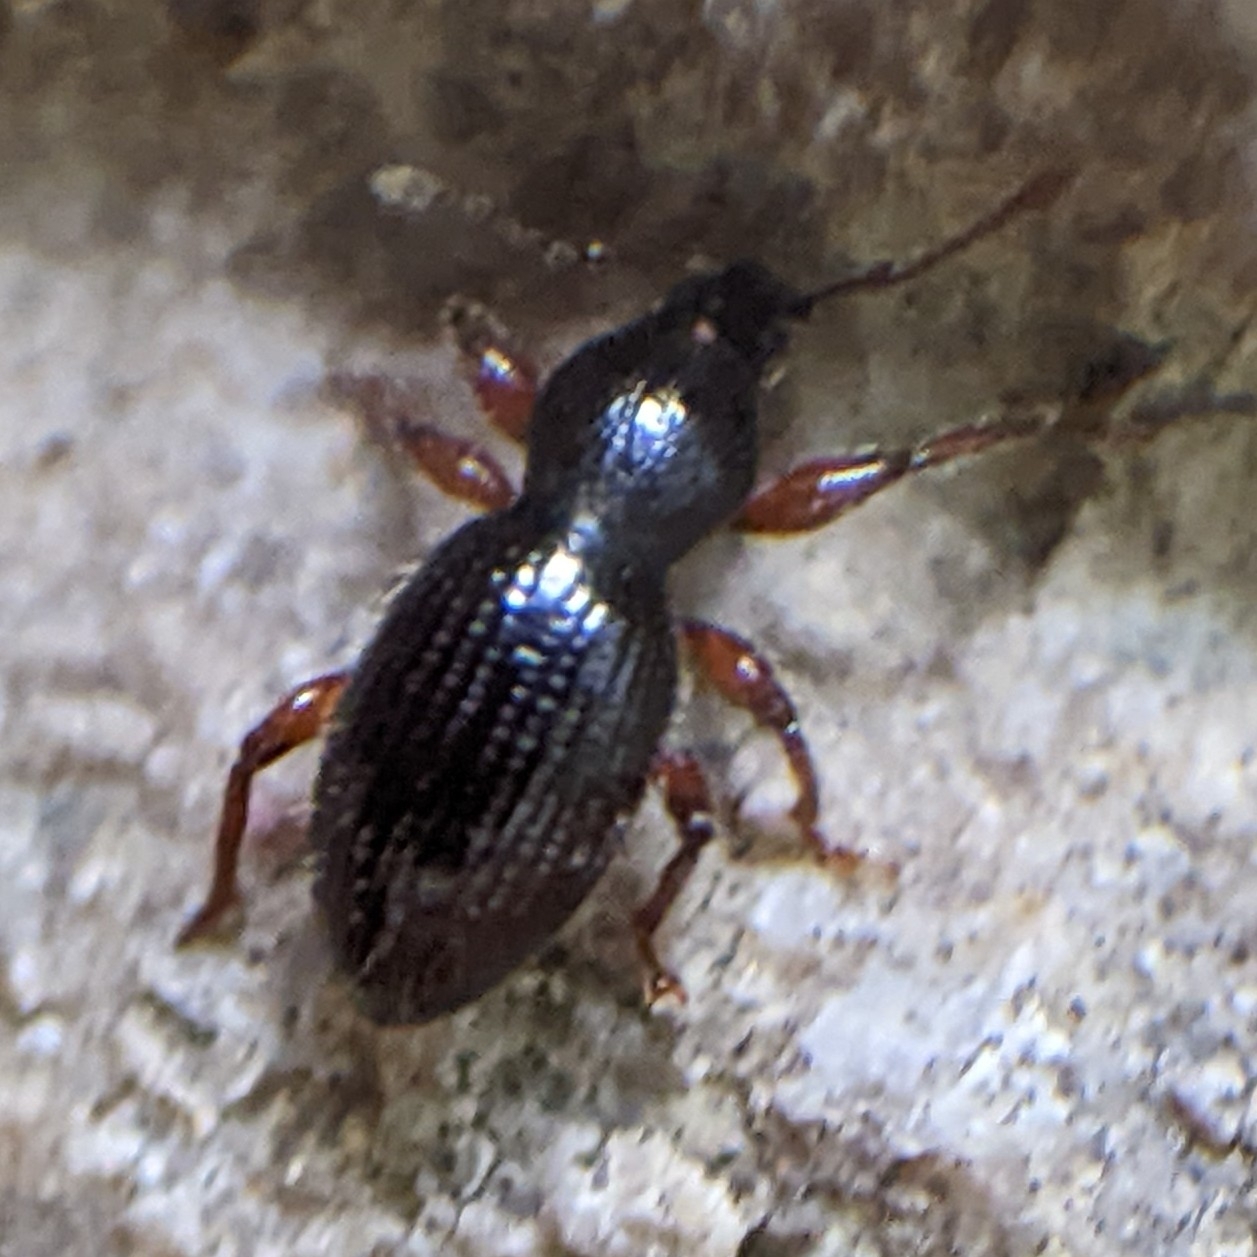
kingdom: Animalia
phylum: Arthropoda
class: Insecta
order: Coleoptera
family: Curculionidae
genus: Exomias
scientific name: Exomias pellucidus
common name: Hairy spider weevil
